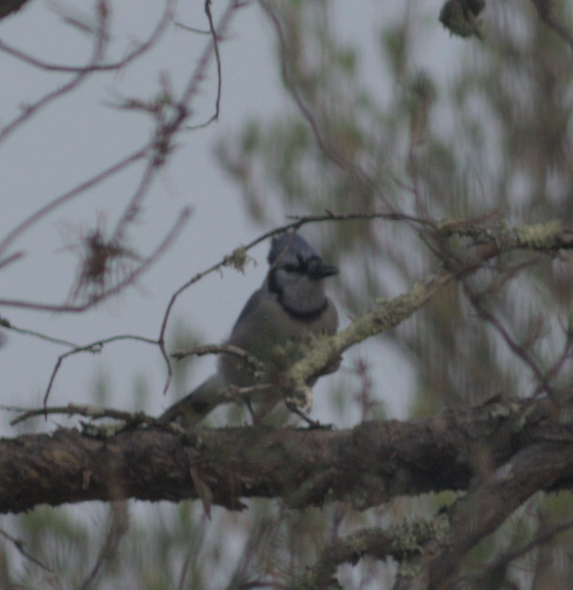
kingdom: Animalia
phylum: Chordata
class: Aves
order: Passeriformes
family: Corvidae
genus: Cyanocitta
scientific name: Cyanocitta cristata
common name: Blue jay
